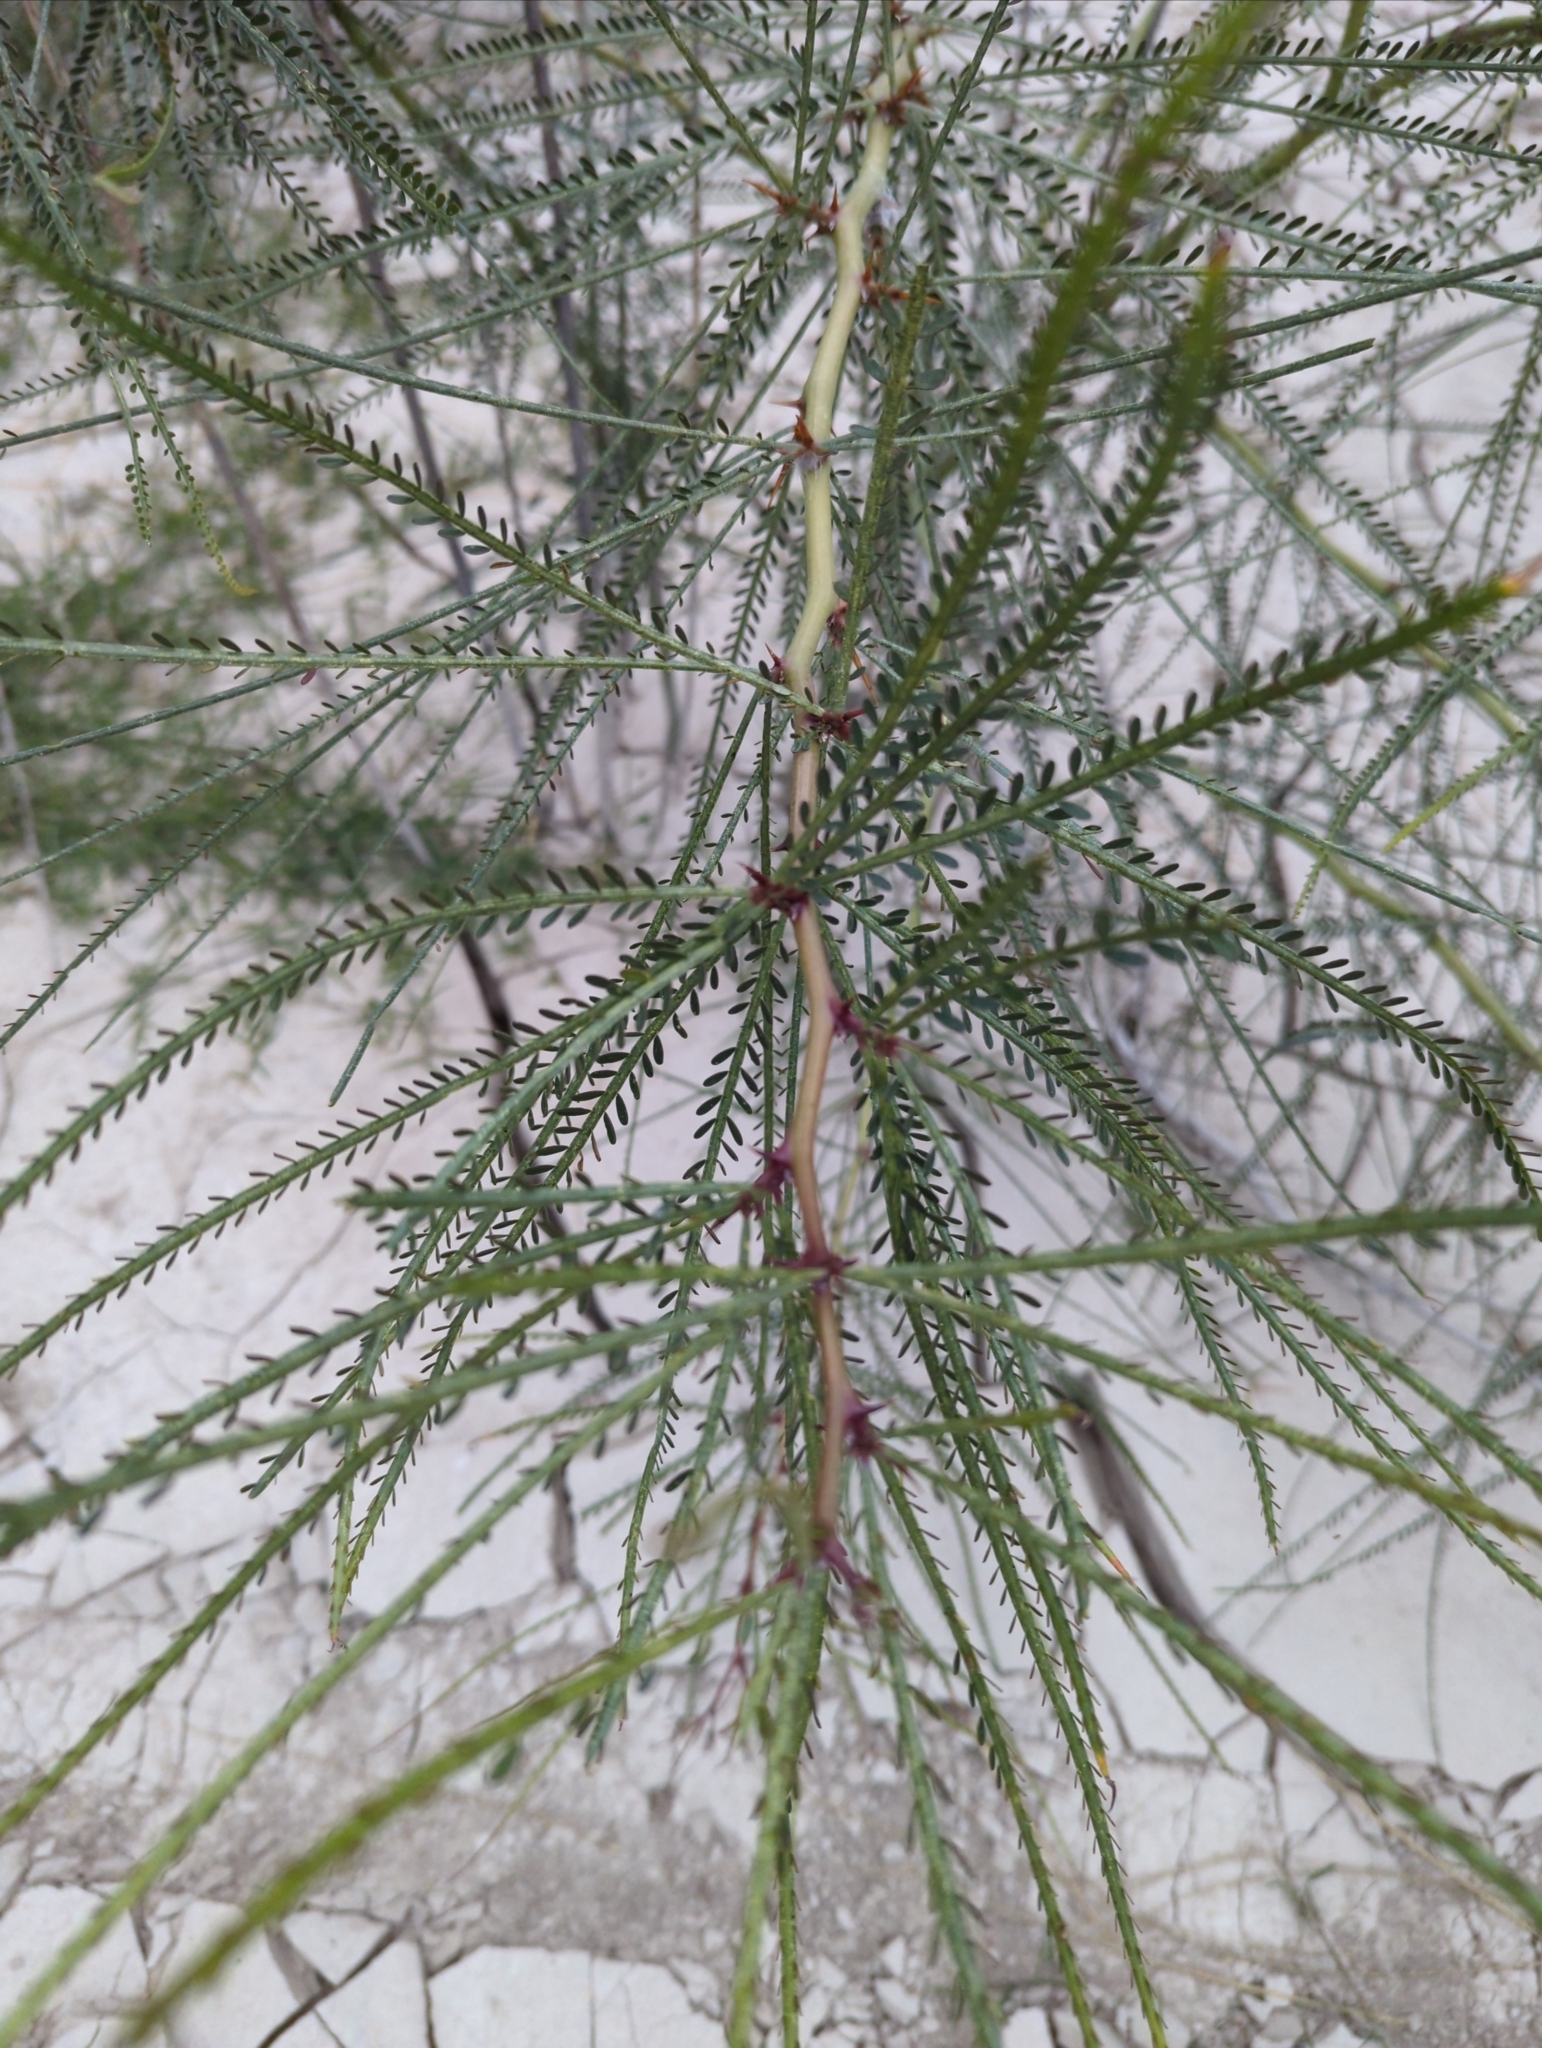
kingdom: Plantae
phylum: Tracheophyta
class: Magnoliopsida
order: Fabales
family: Fabaceae
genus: Parkinsonia
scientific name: Parkinsonia aculeata
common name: Jerusalem thorn
